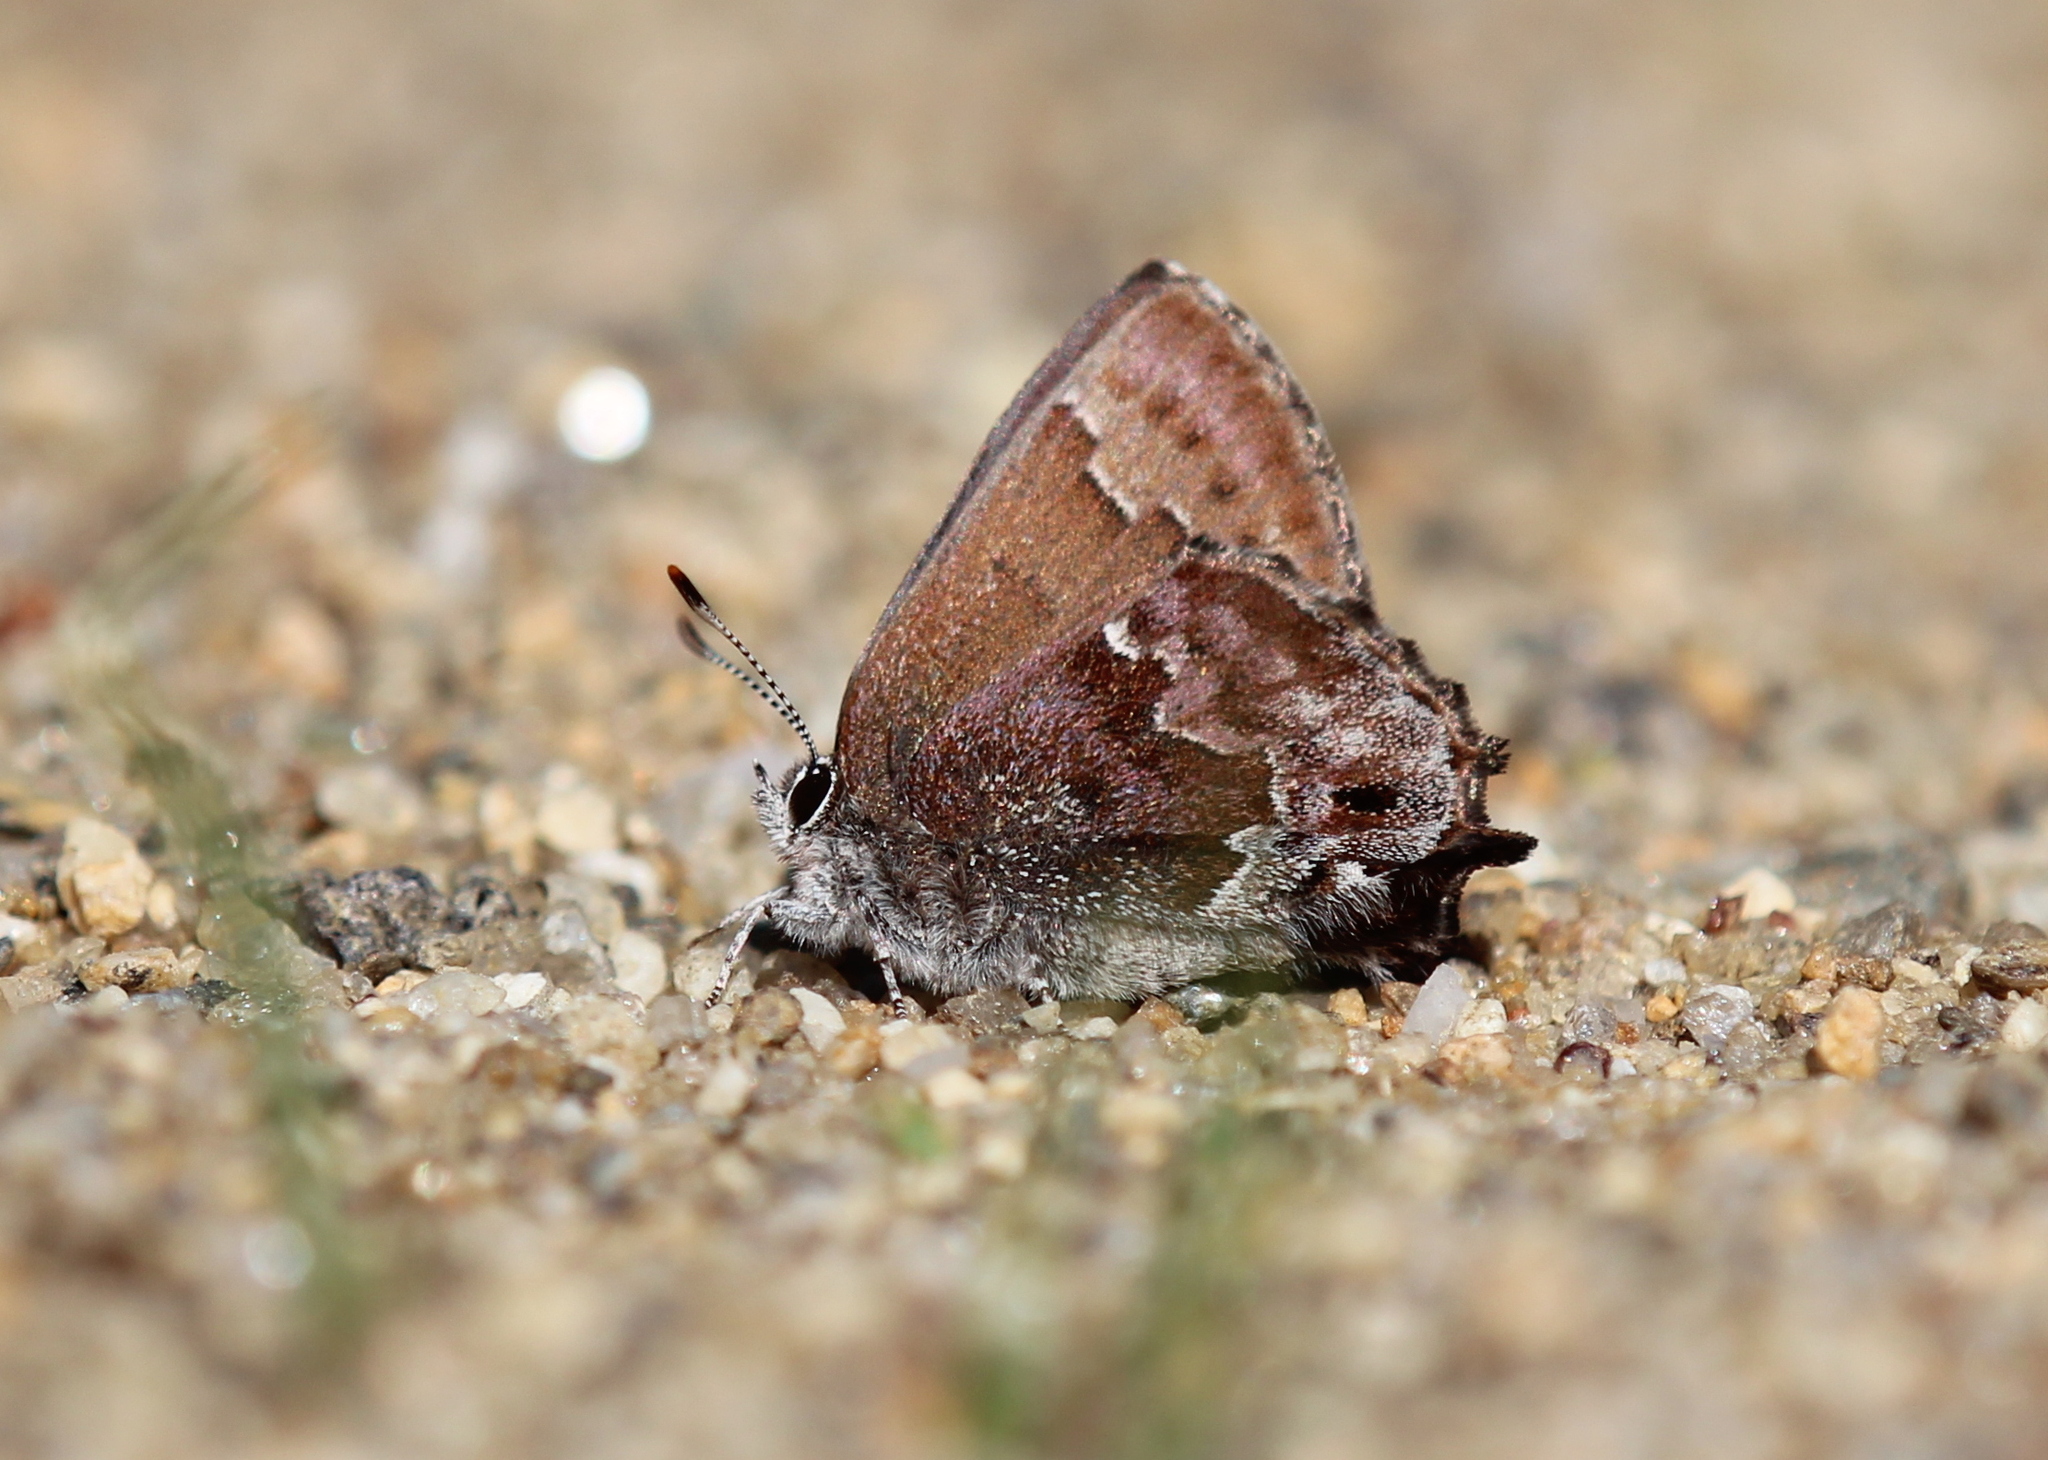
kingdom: Animalia
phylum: Arthropoda
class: Insecta
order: Lepidoptera
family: Lycaenidae
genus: Thecla
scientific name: Thecla irus
